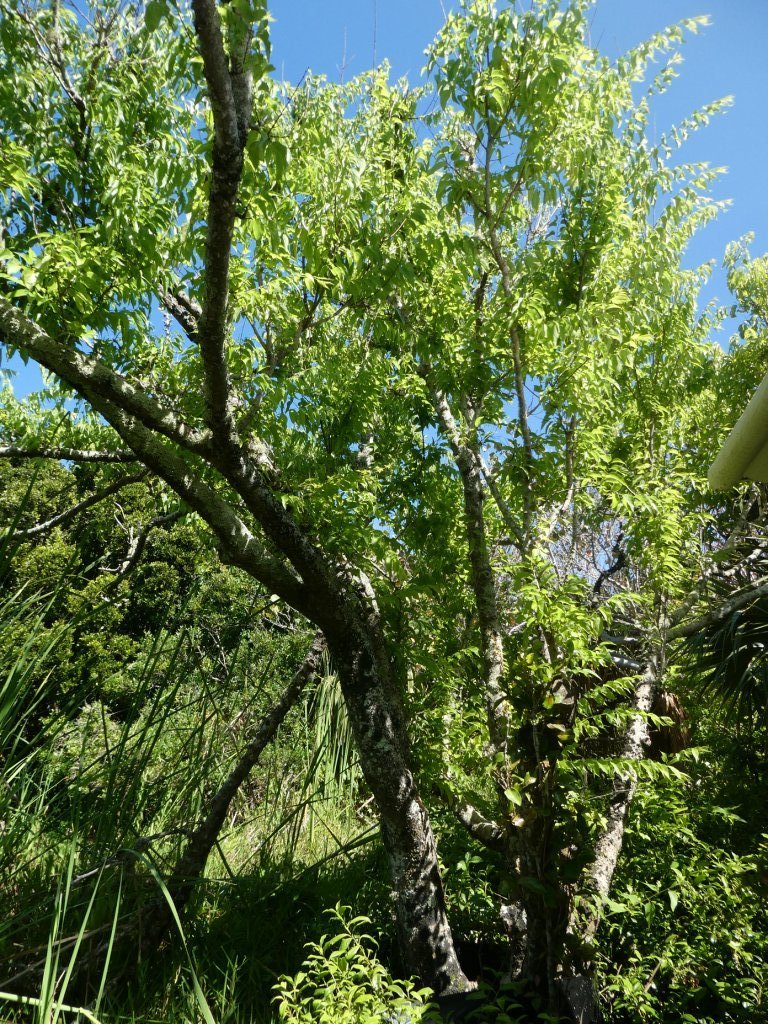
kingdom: Plantae
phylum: Tracheophyta
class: Magnoliopsida
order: Rosales
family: Cannabaceae
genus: Celtis
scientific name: Celtis laevigata
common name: Sugarberry
